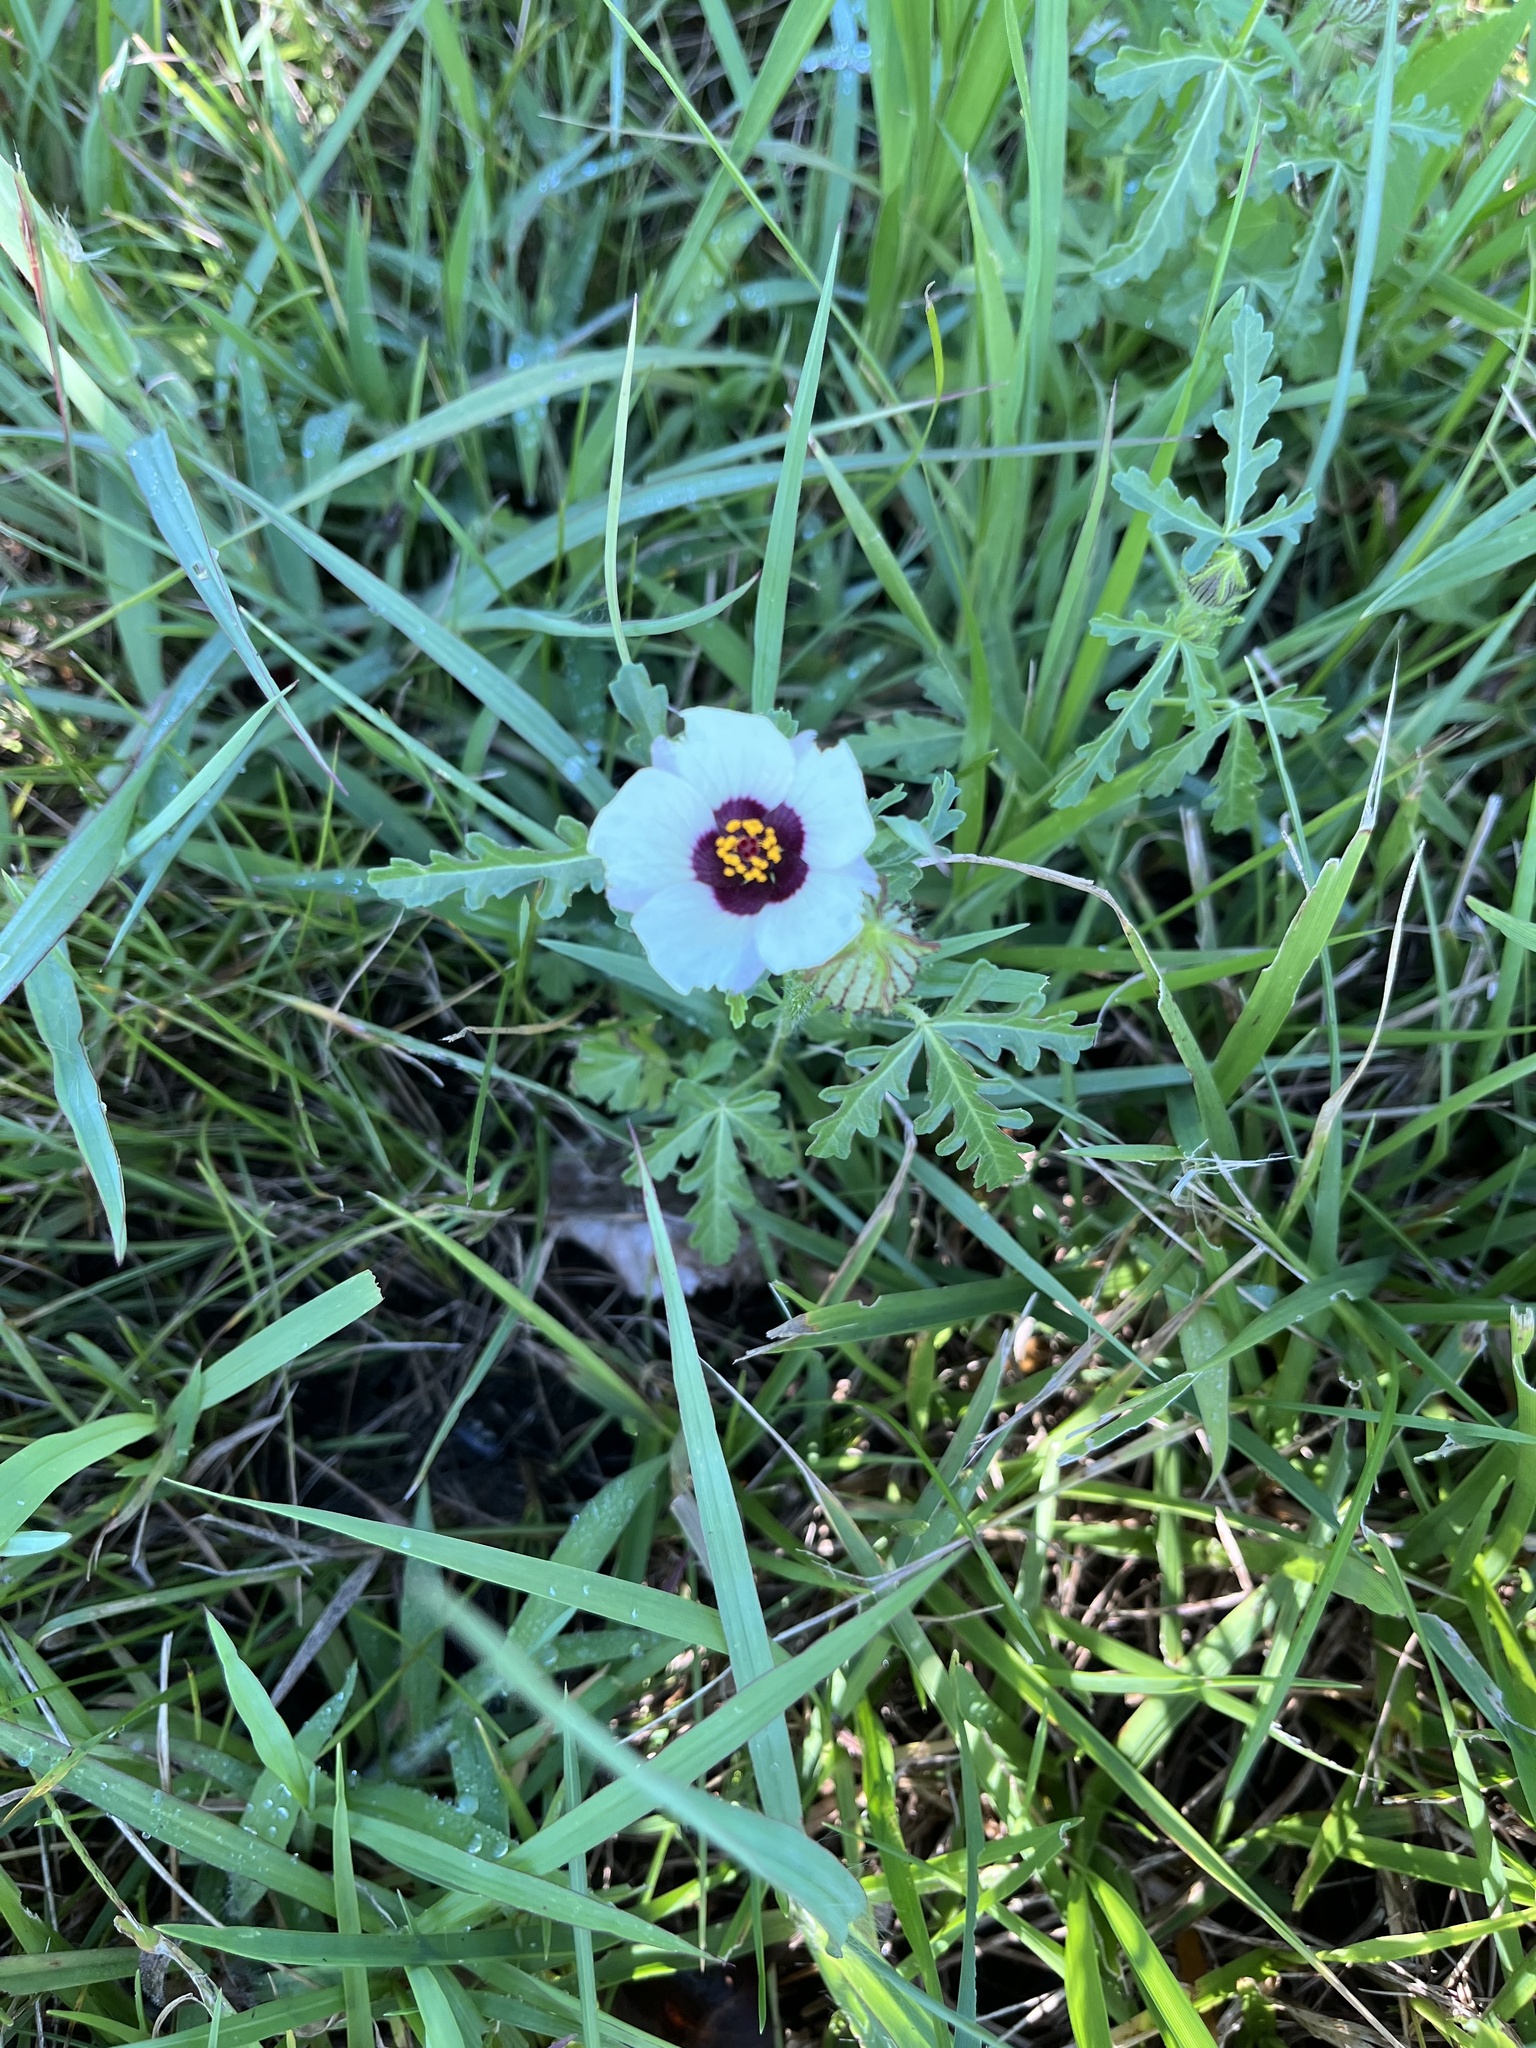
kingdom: Plantae
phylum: Tracheophyta
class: Magnoliopsida
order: Malvales
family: Malvaceae
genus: Hibiscus
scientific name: Hibiscus trionum
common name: Bladder ketmia
